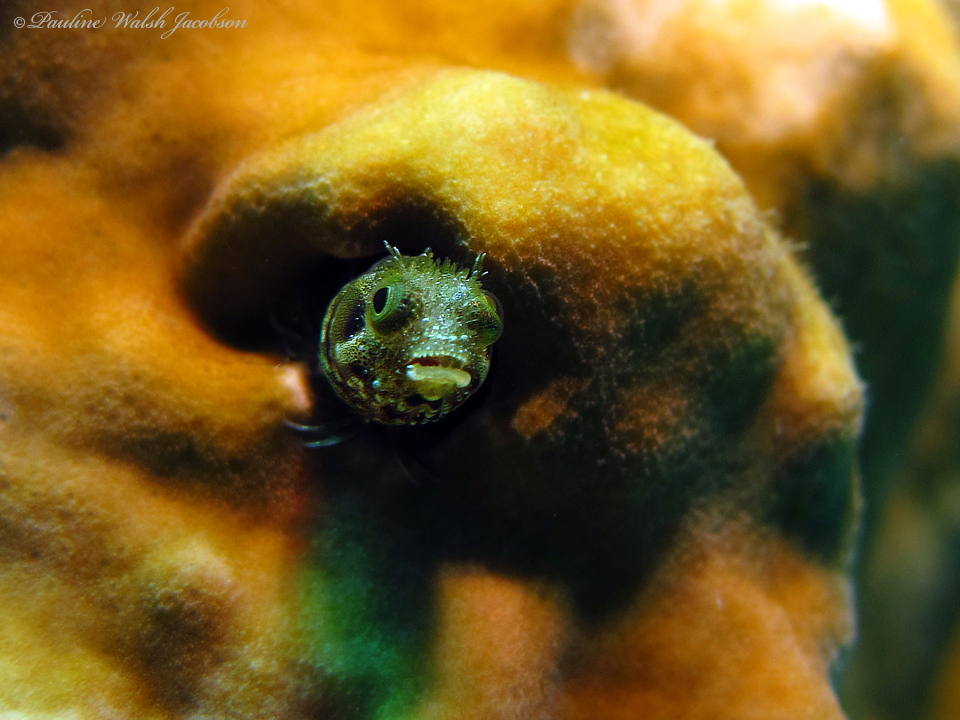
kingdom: Animalia
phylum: Chordata
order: Perciformes
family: Chaenopsidae
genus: Acanthemblemaria
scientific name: Acanthemblemaria spinosa
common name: Spinyhead blenny
